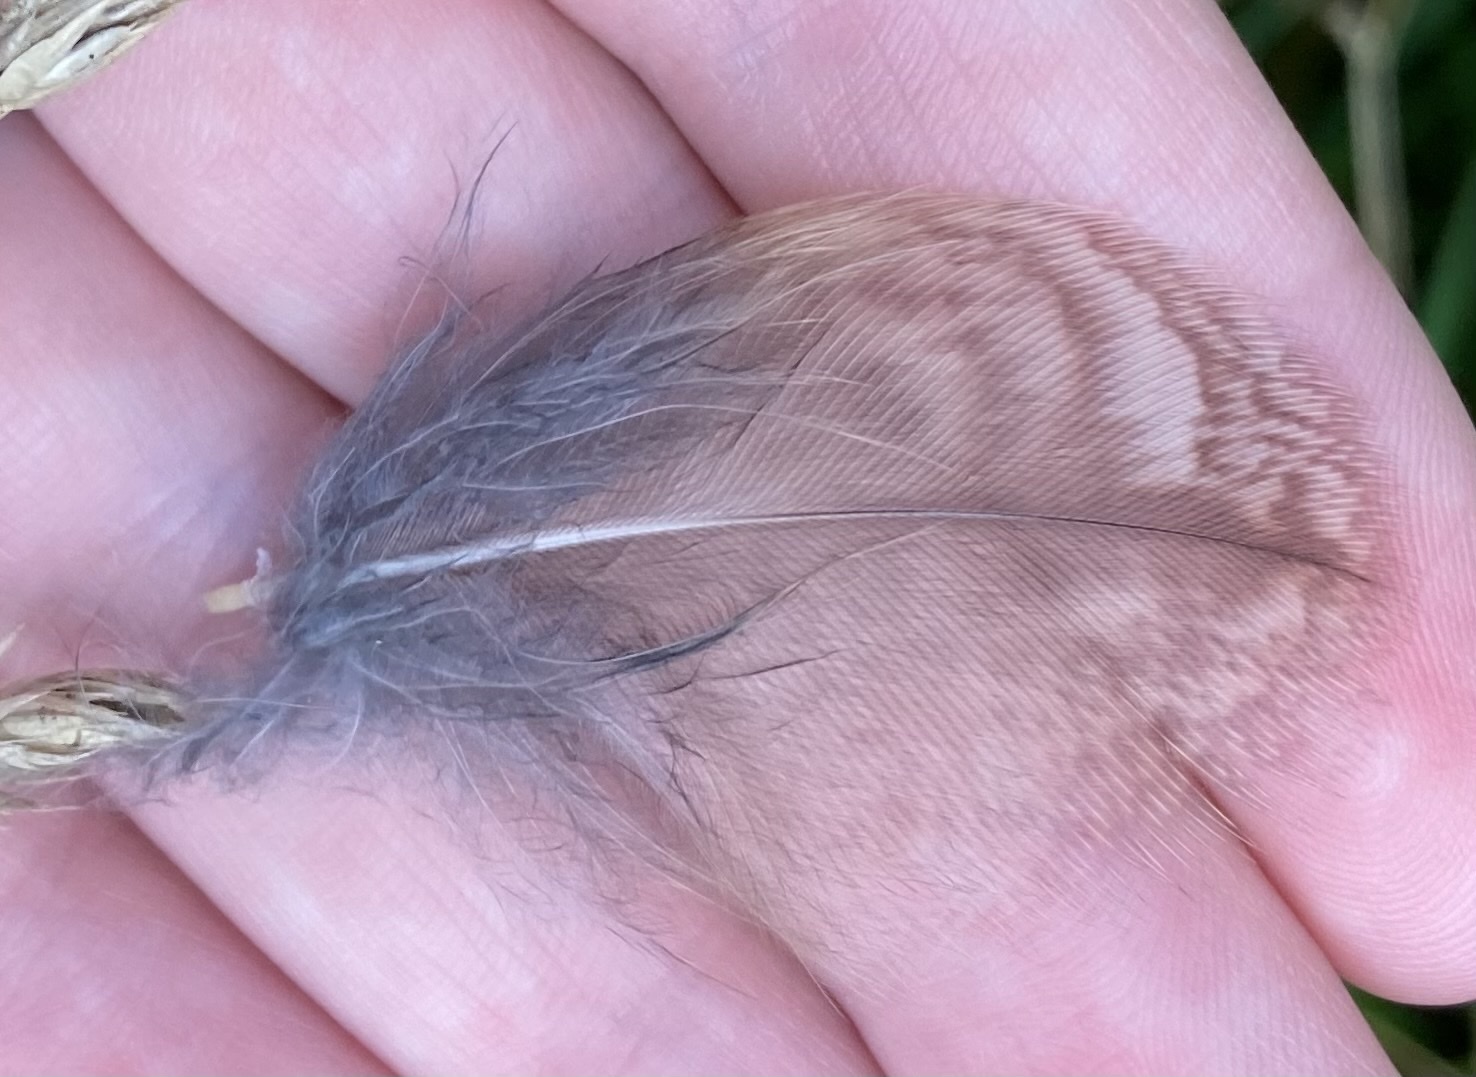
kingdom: Animalia
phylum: Chordata
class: Aves
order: Strigiformes
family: Strigidae
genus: Strix
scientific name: Strix aluco
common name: Tawny owl
